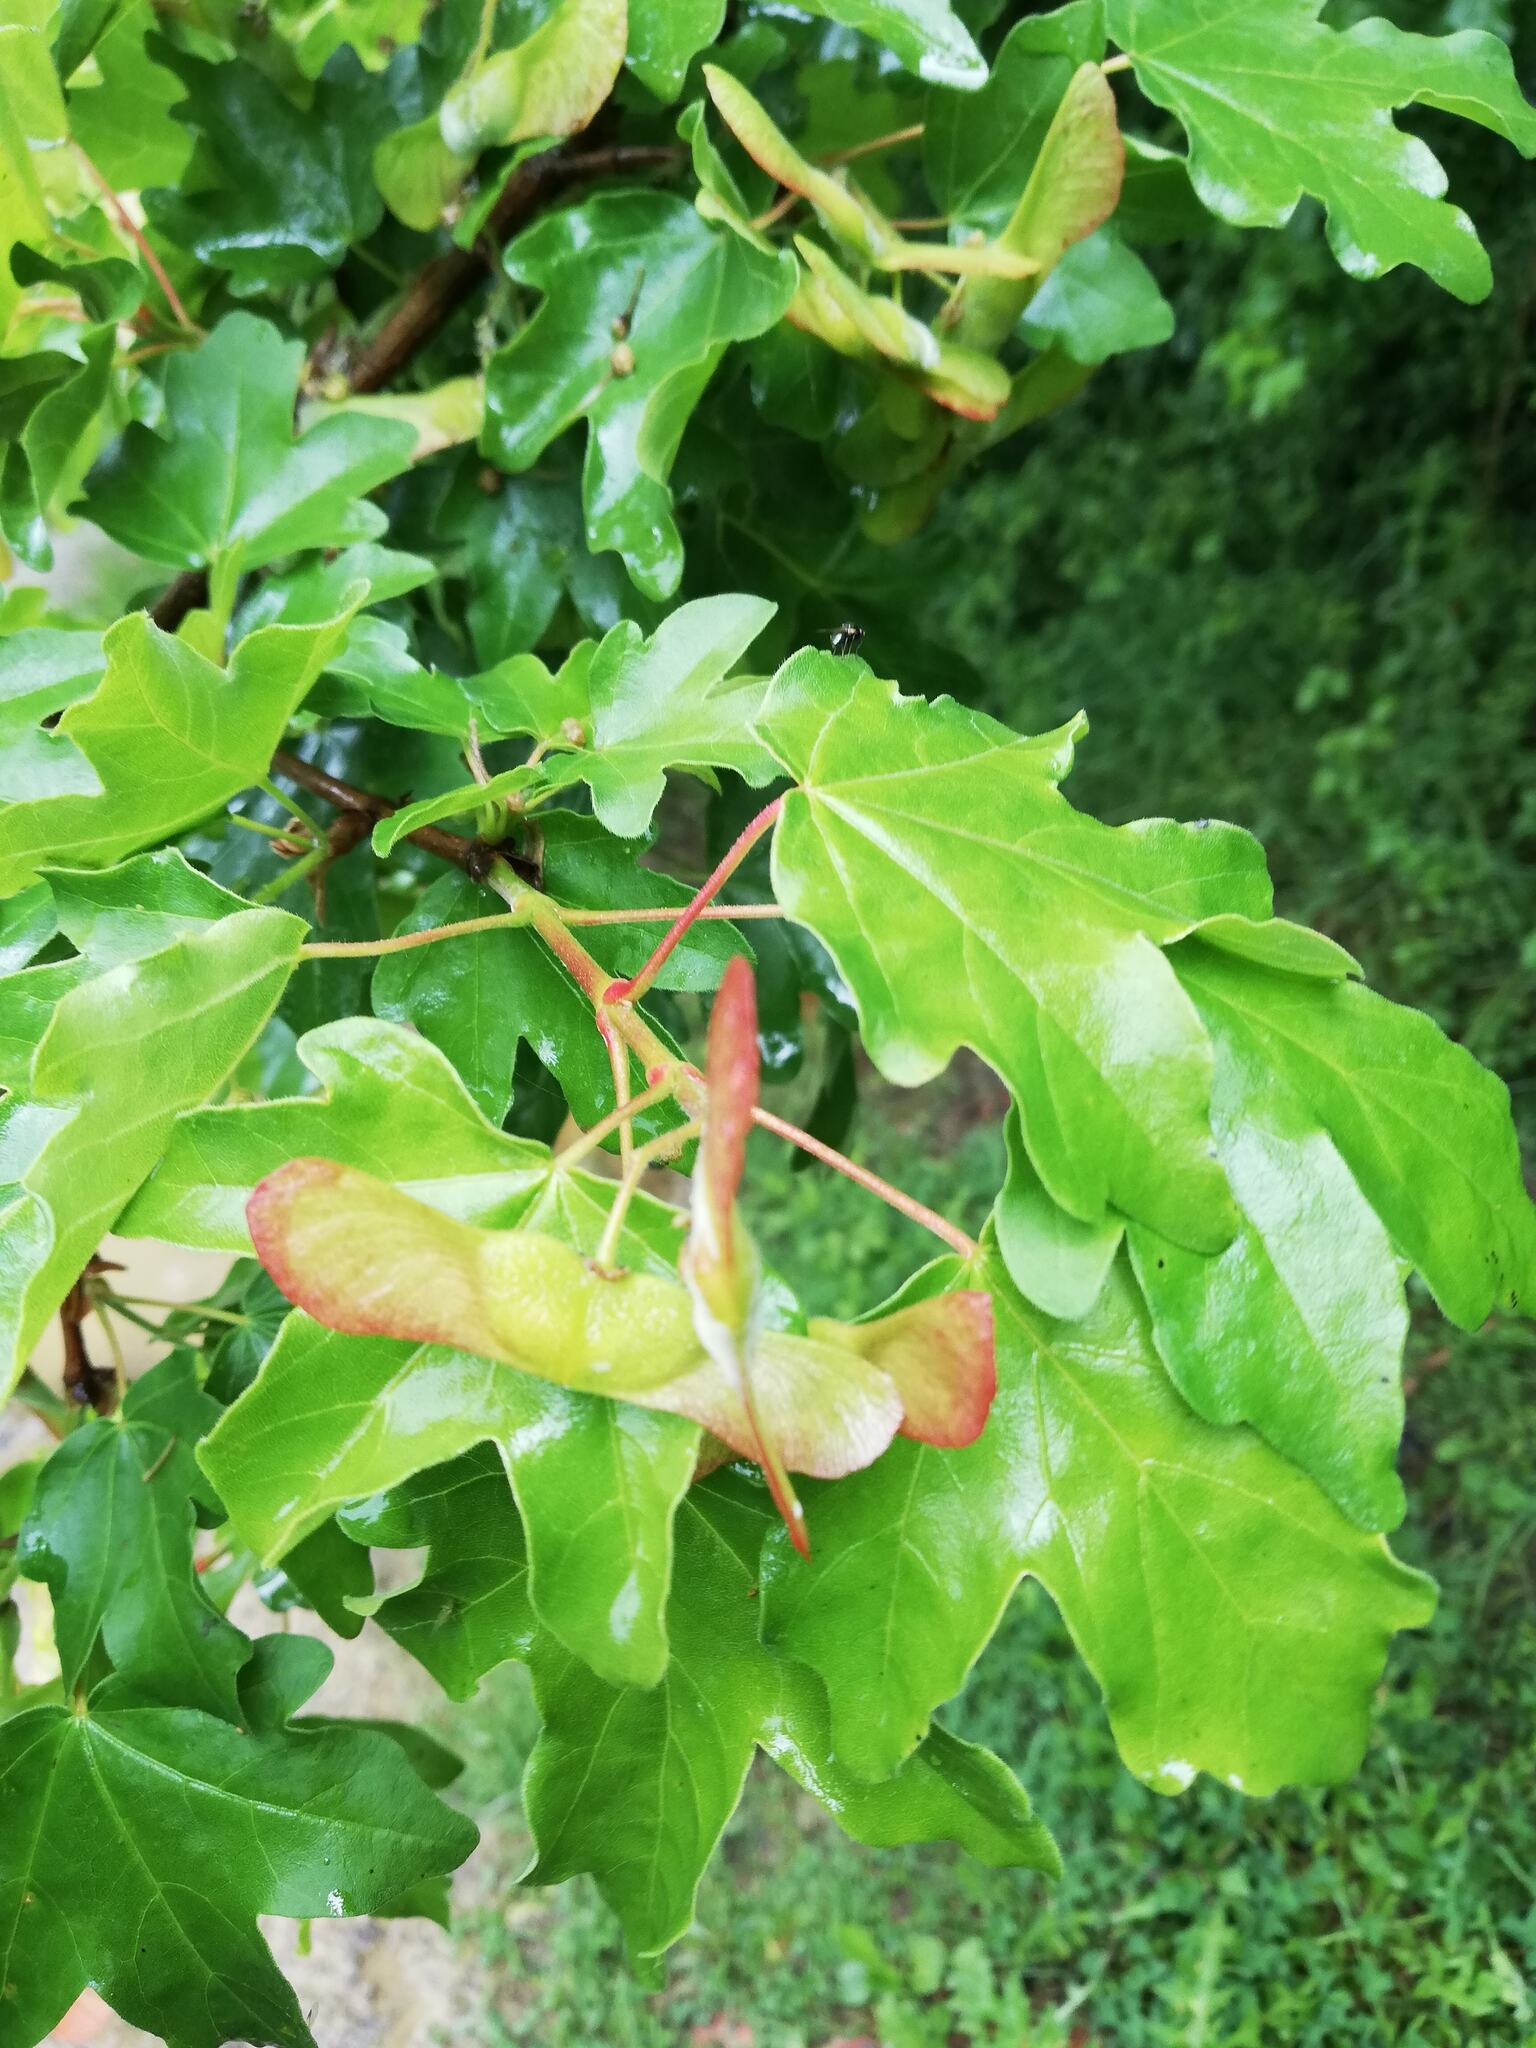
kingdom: Plantae
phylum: Tracheophyta
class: Magnoliopsida
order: Sapindales
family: Sapindaceae
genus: Acer
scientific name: Acer campestre
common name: Field maple
